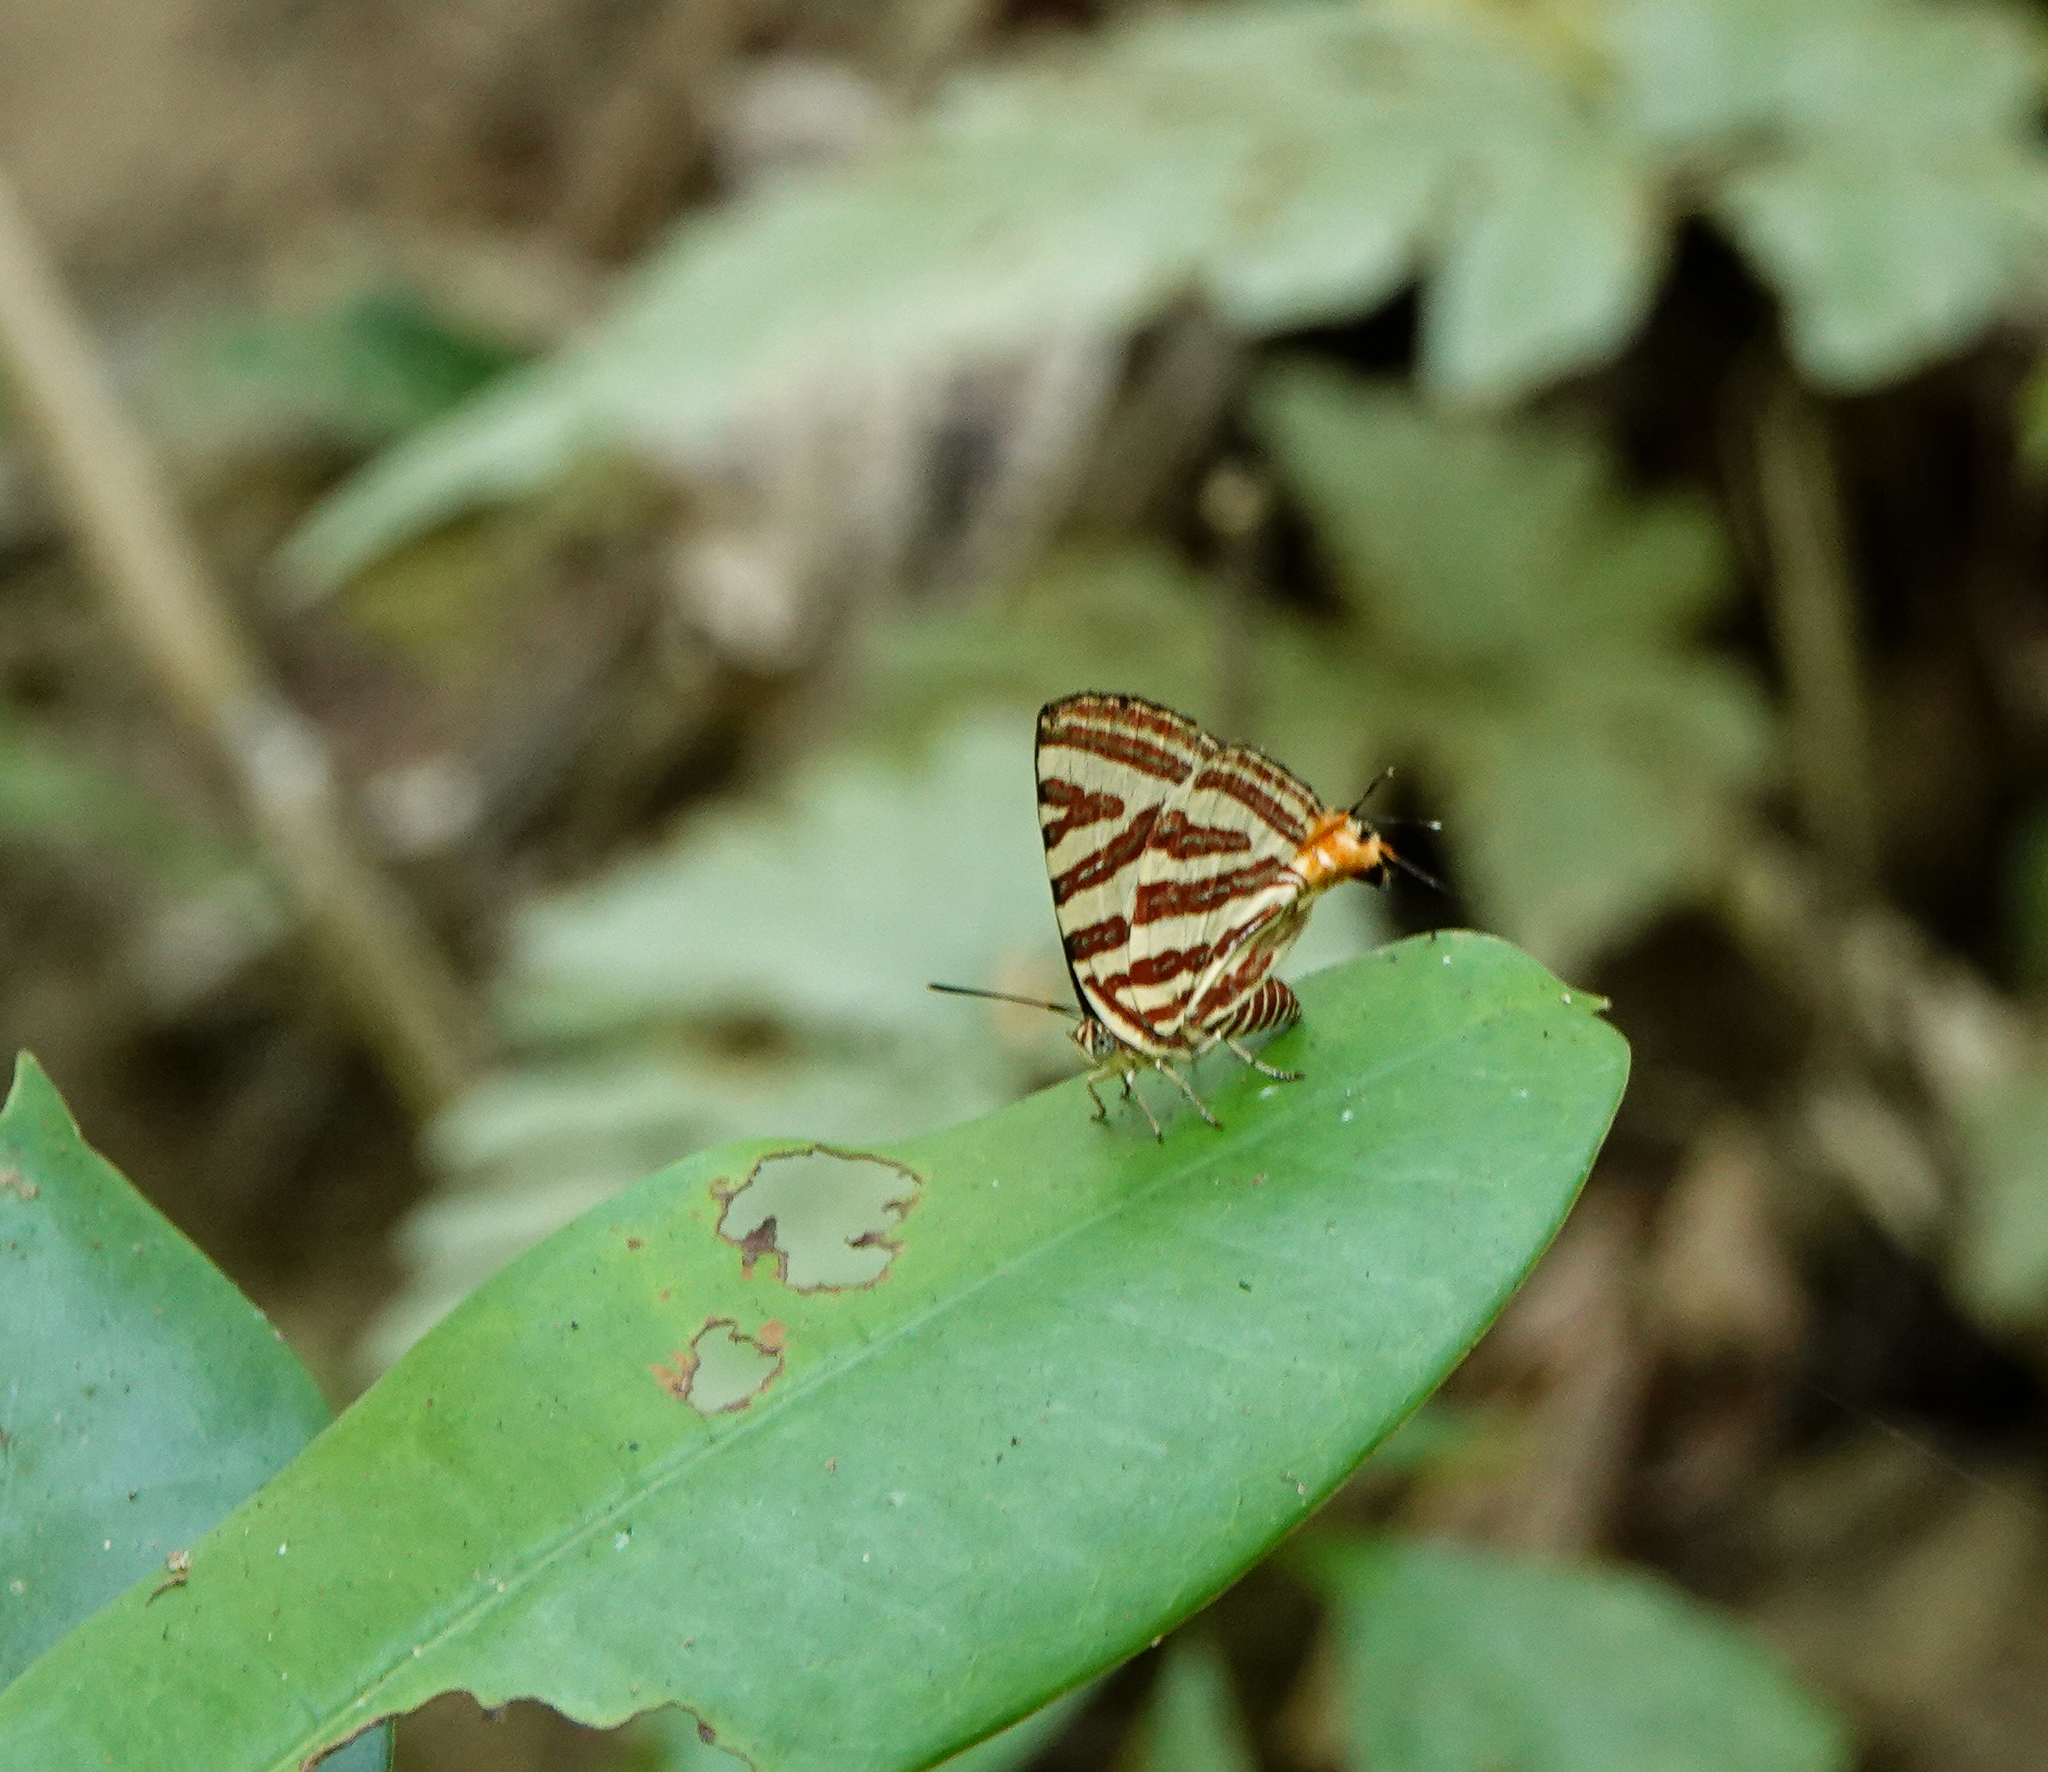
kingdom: Animalia
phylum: Arthropoda
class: Insecta
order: Lepidoptera
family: Lycaenidae
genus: Cigaritis
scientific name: Cigaritis lohita
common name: Long-banded silverline
